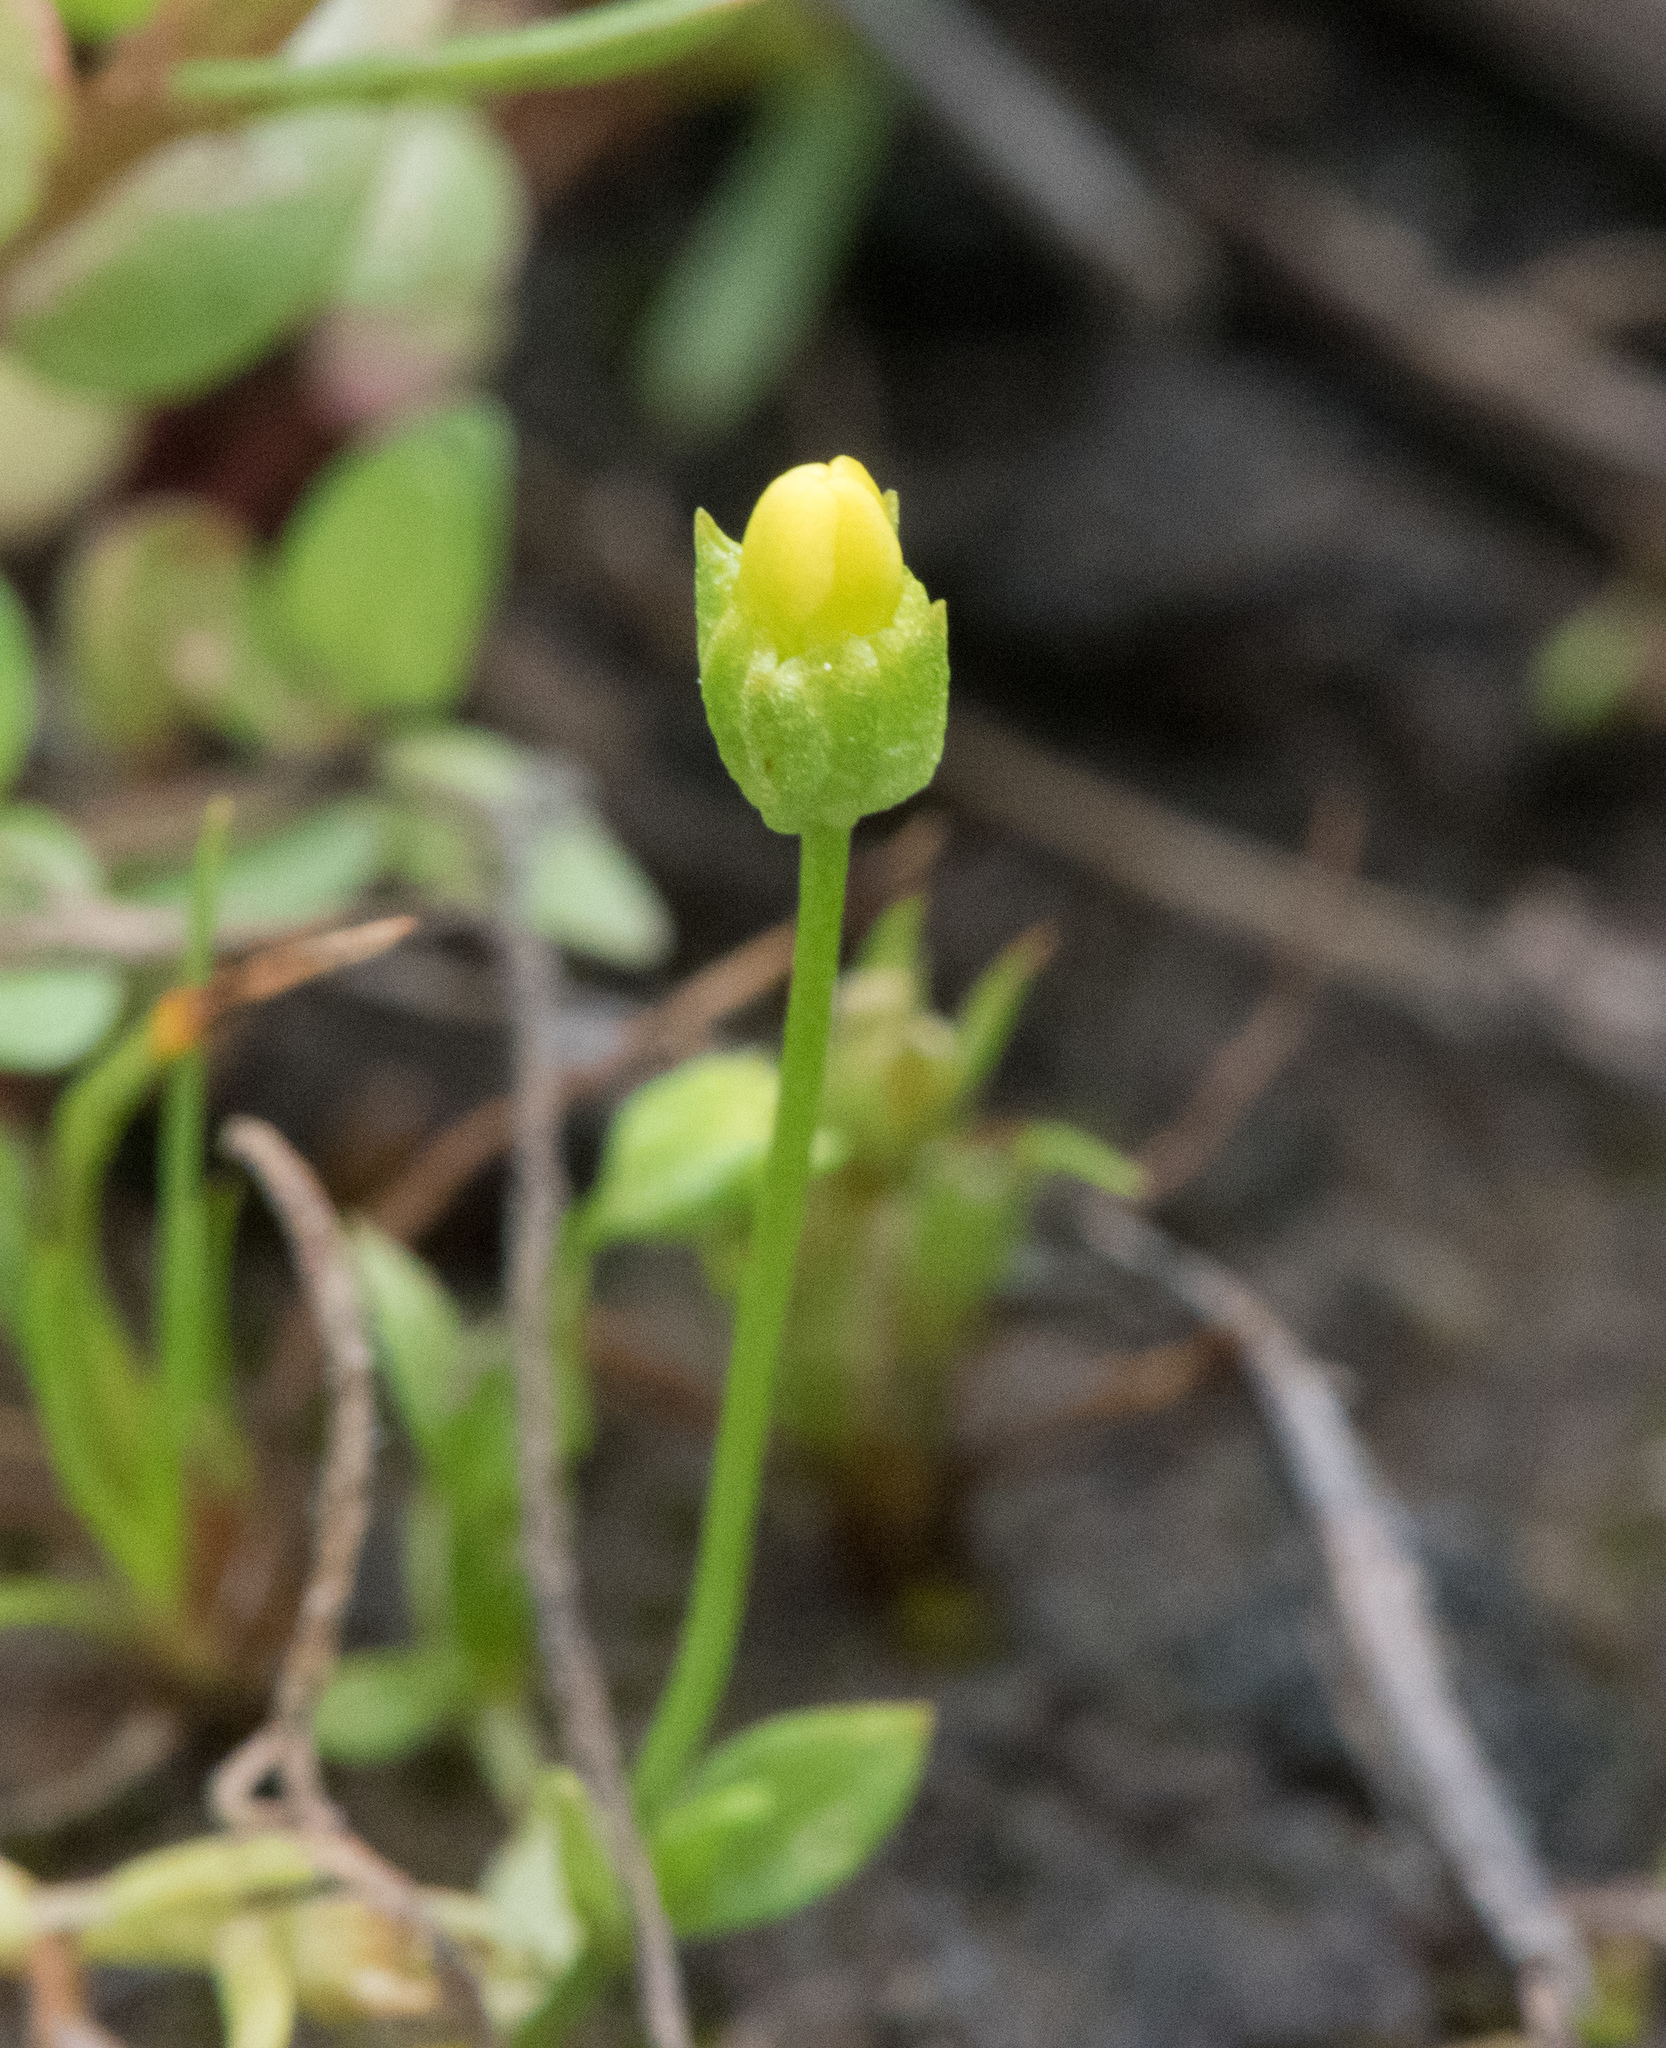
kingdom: Plantae
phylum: Tracheophyta
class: Magnoliopsida
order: Gentianales
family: Gentianaceae
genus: Microcala
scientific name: Microcala quadrangularis
